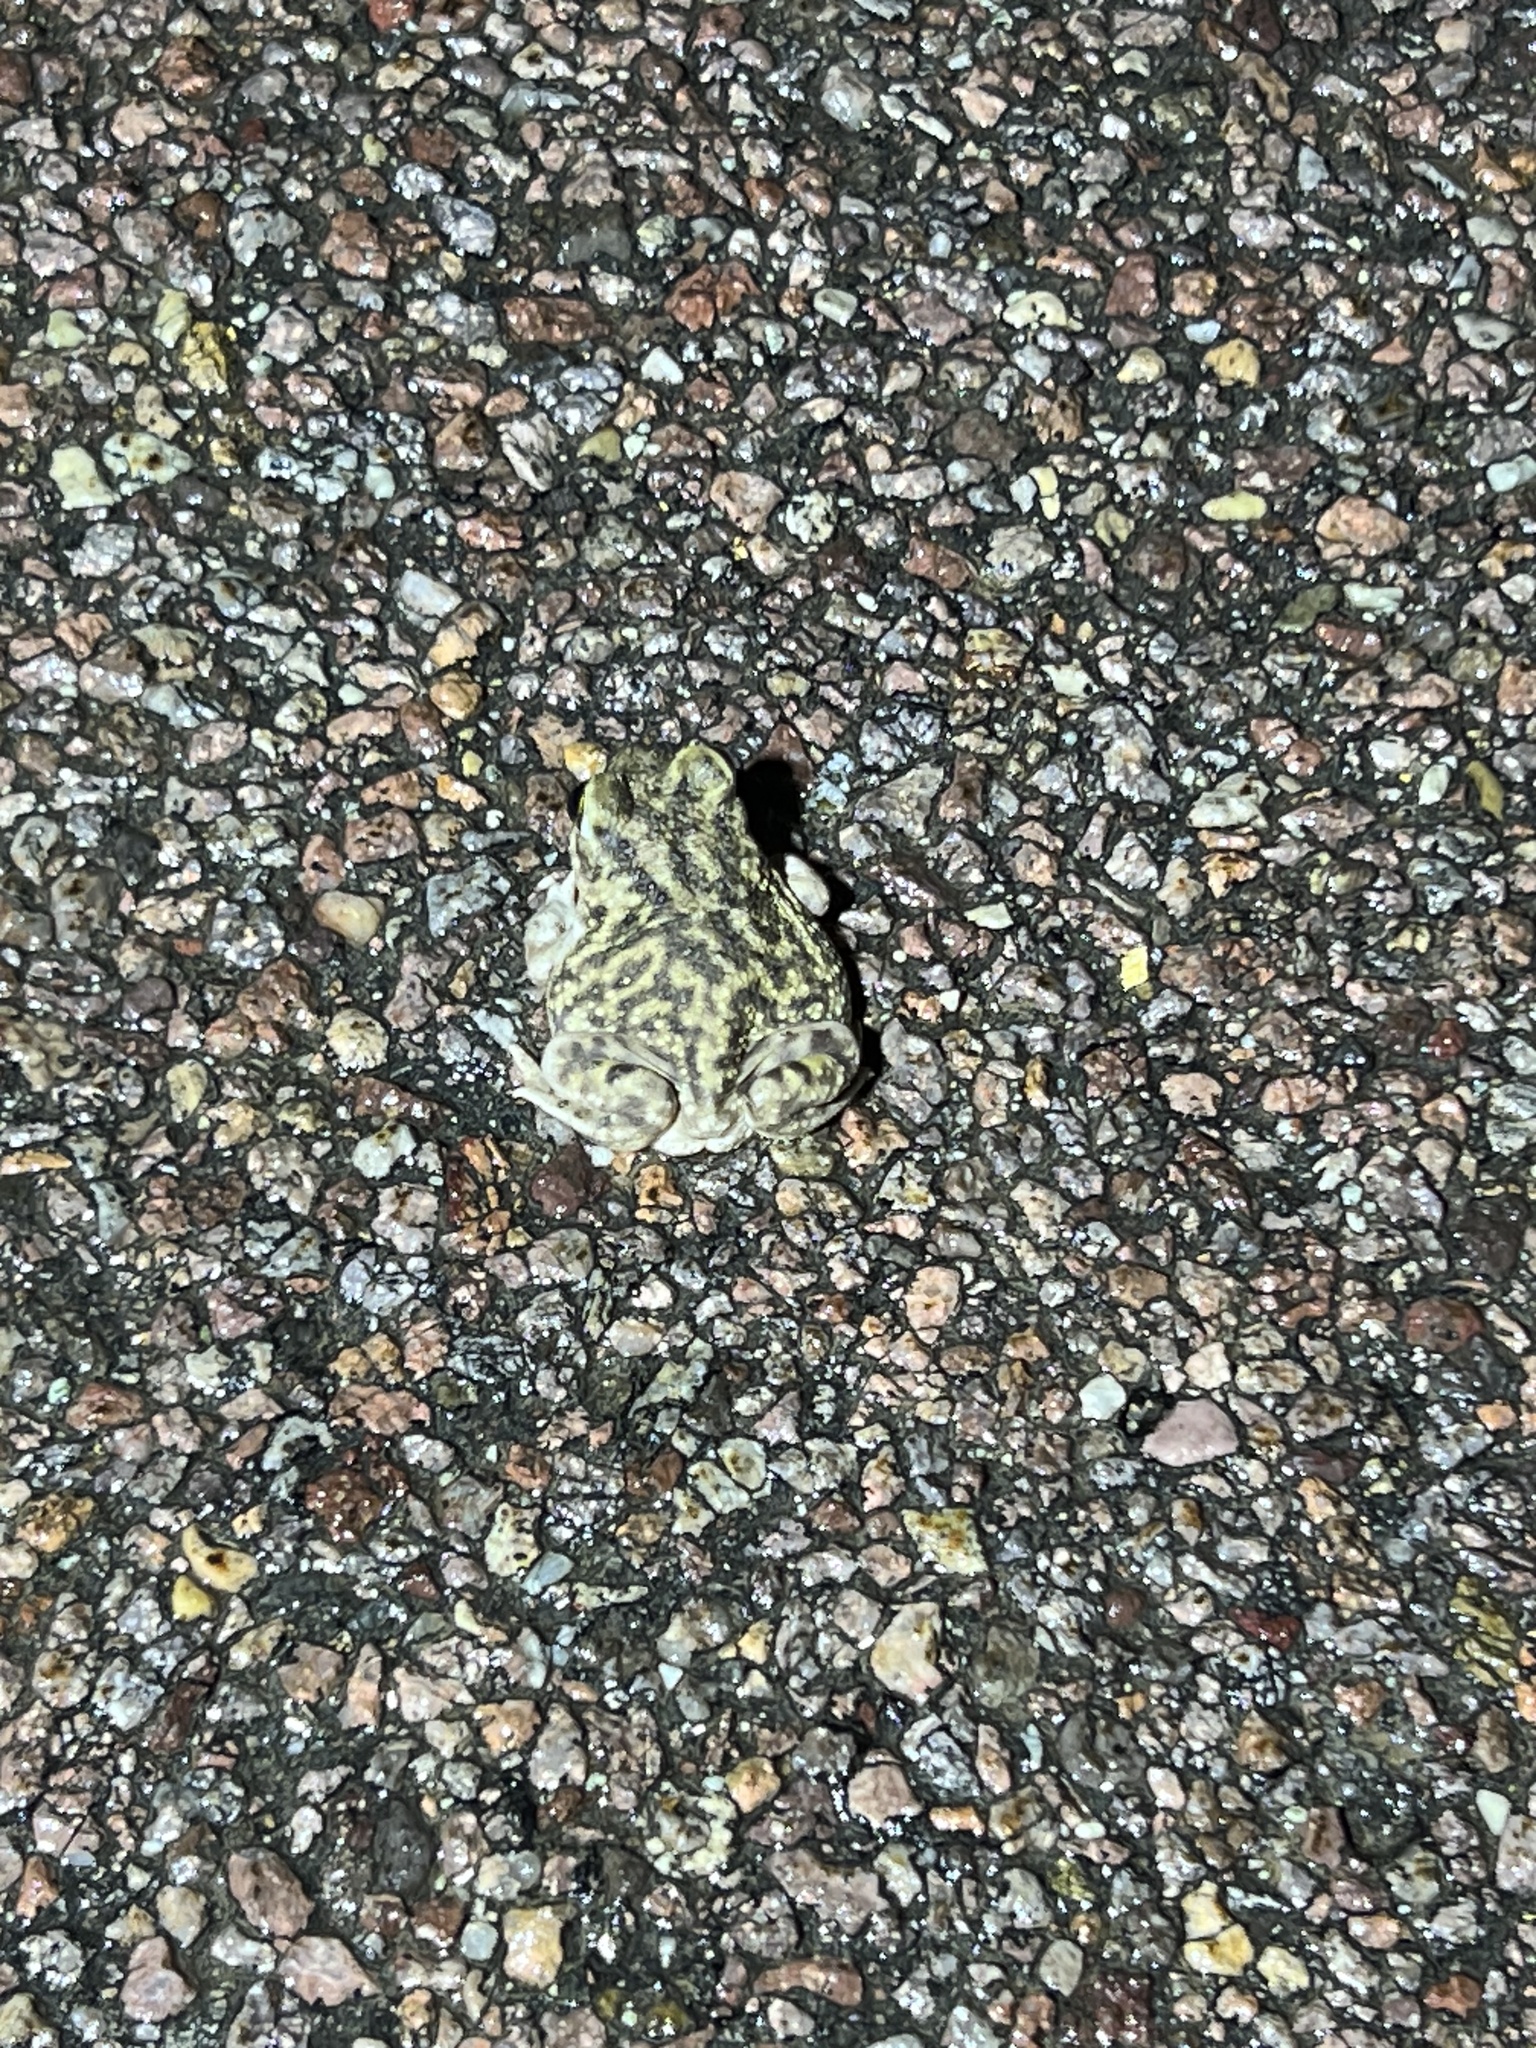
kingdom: Animalia
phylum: Chordata
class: Amphibia
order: Anura
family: Scaphiopodidae
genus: Scaphiopus
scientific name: Scaphiopus couchii
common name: Couch's spadefoot toad
